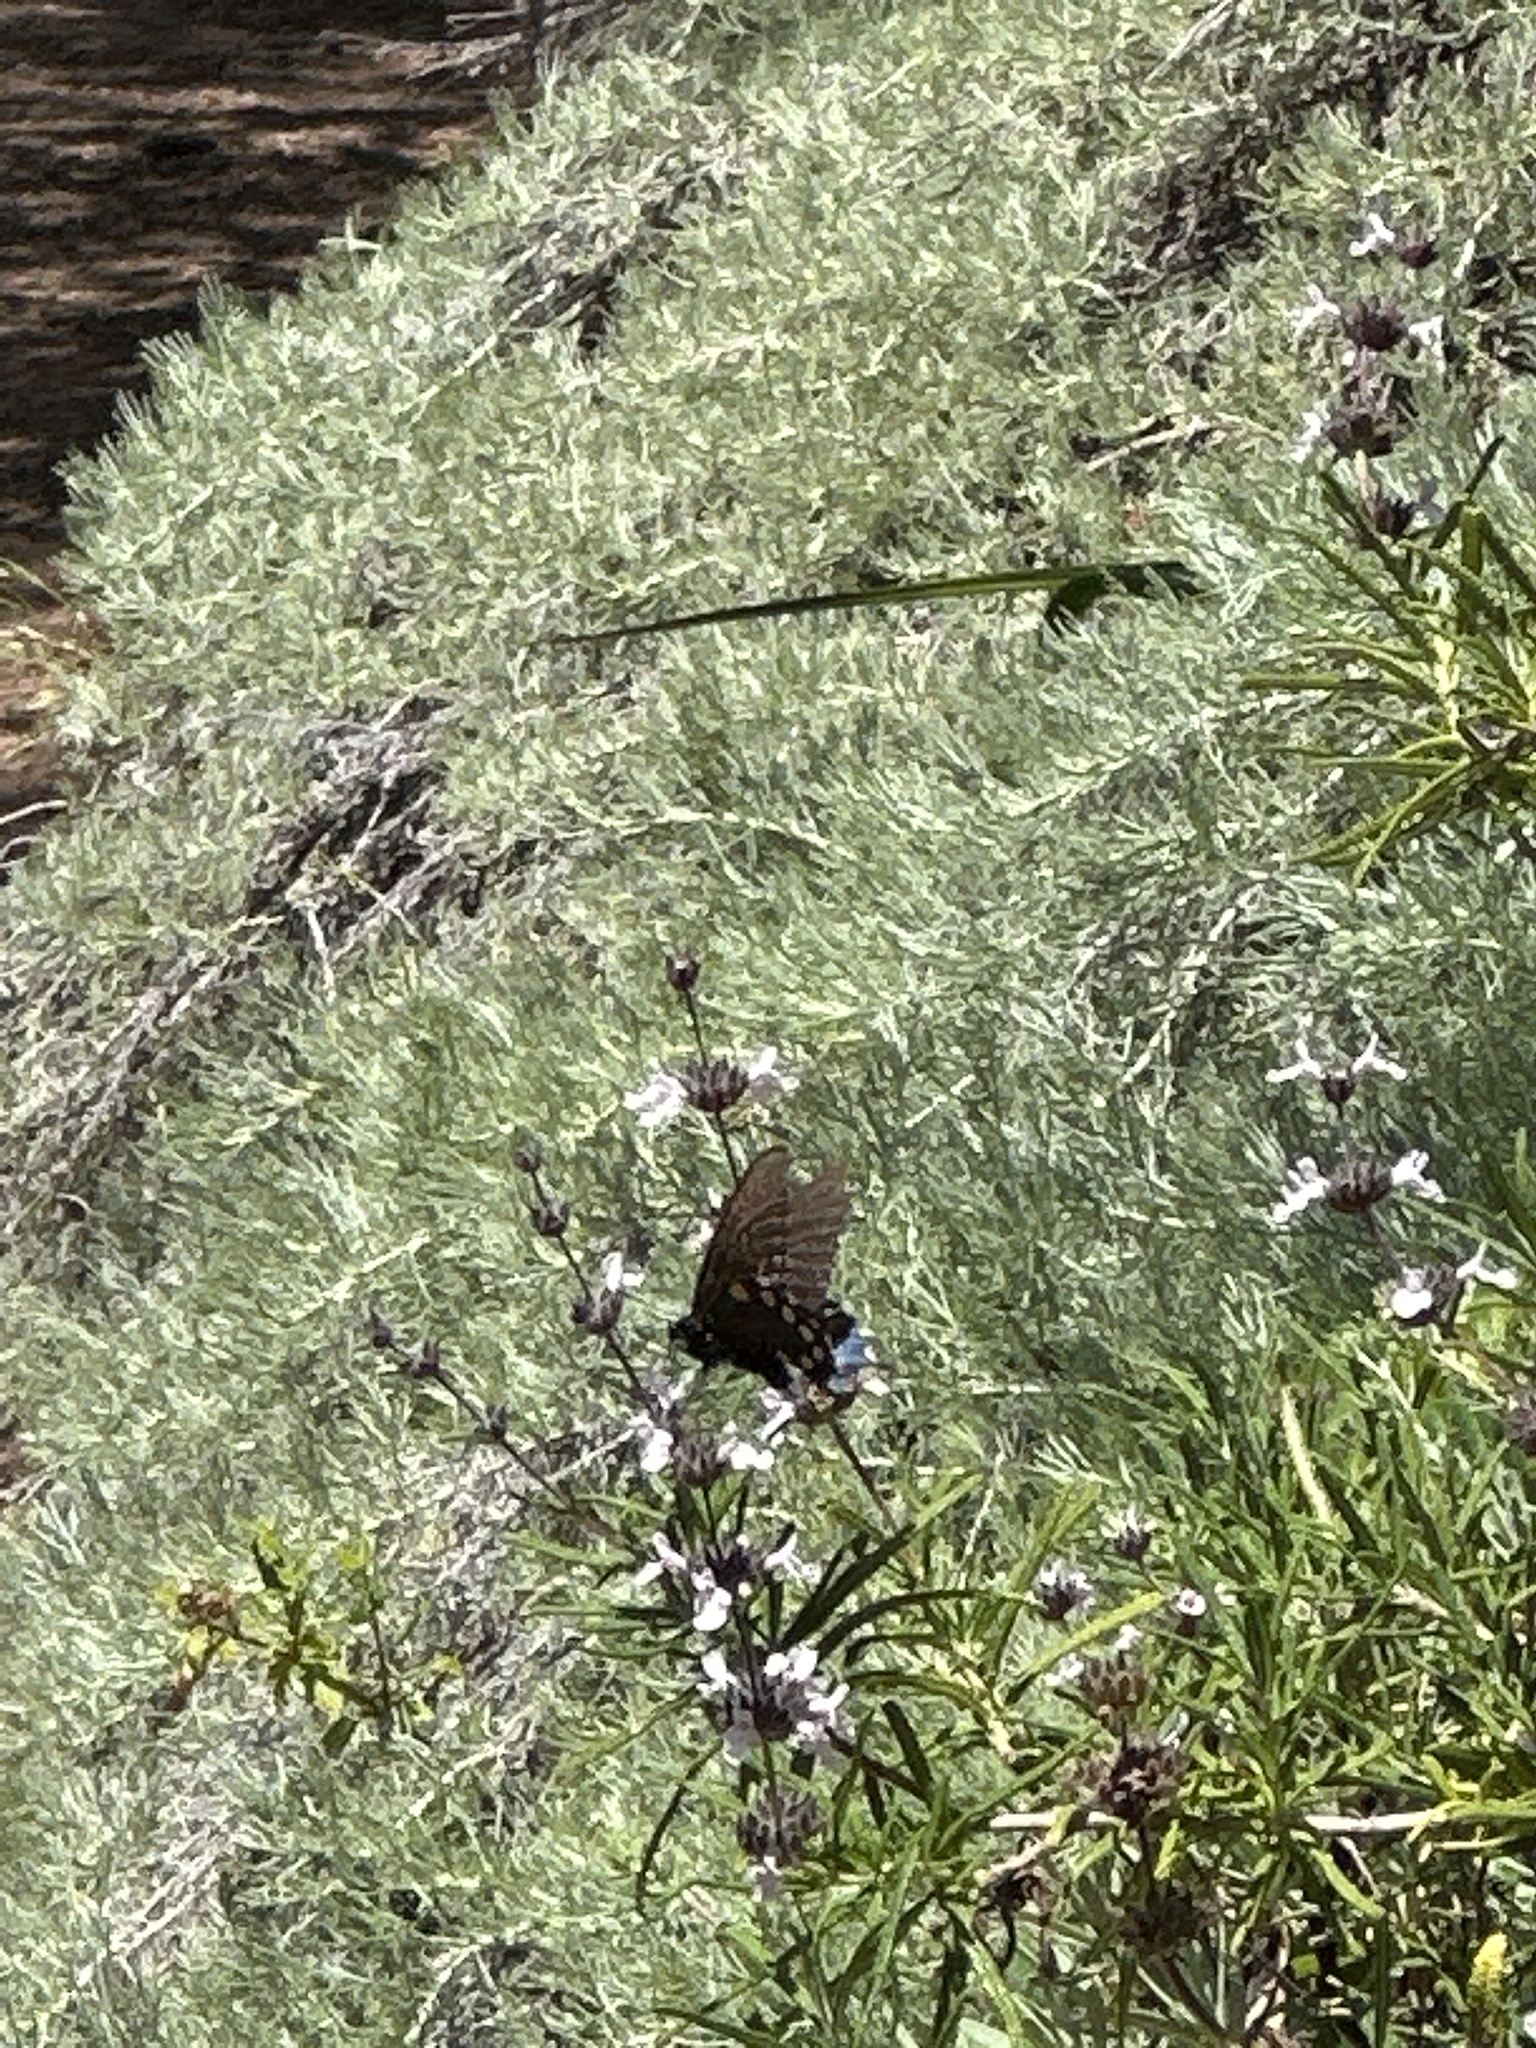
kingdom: Animalia
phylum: Arthropoda
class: Insecta
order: Lepidoptera
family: Papilionidae
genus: Battus
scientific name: Battus philenor
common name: Pipevine swallowtail
